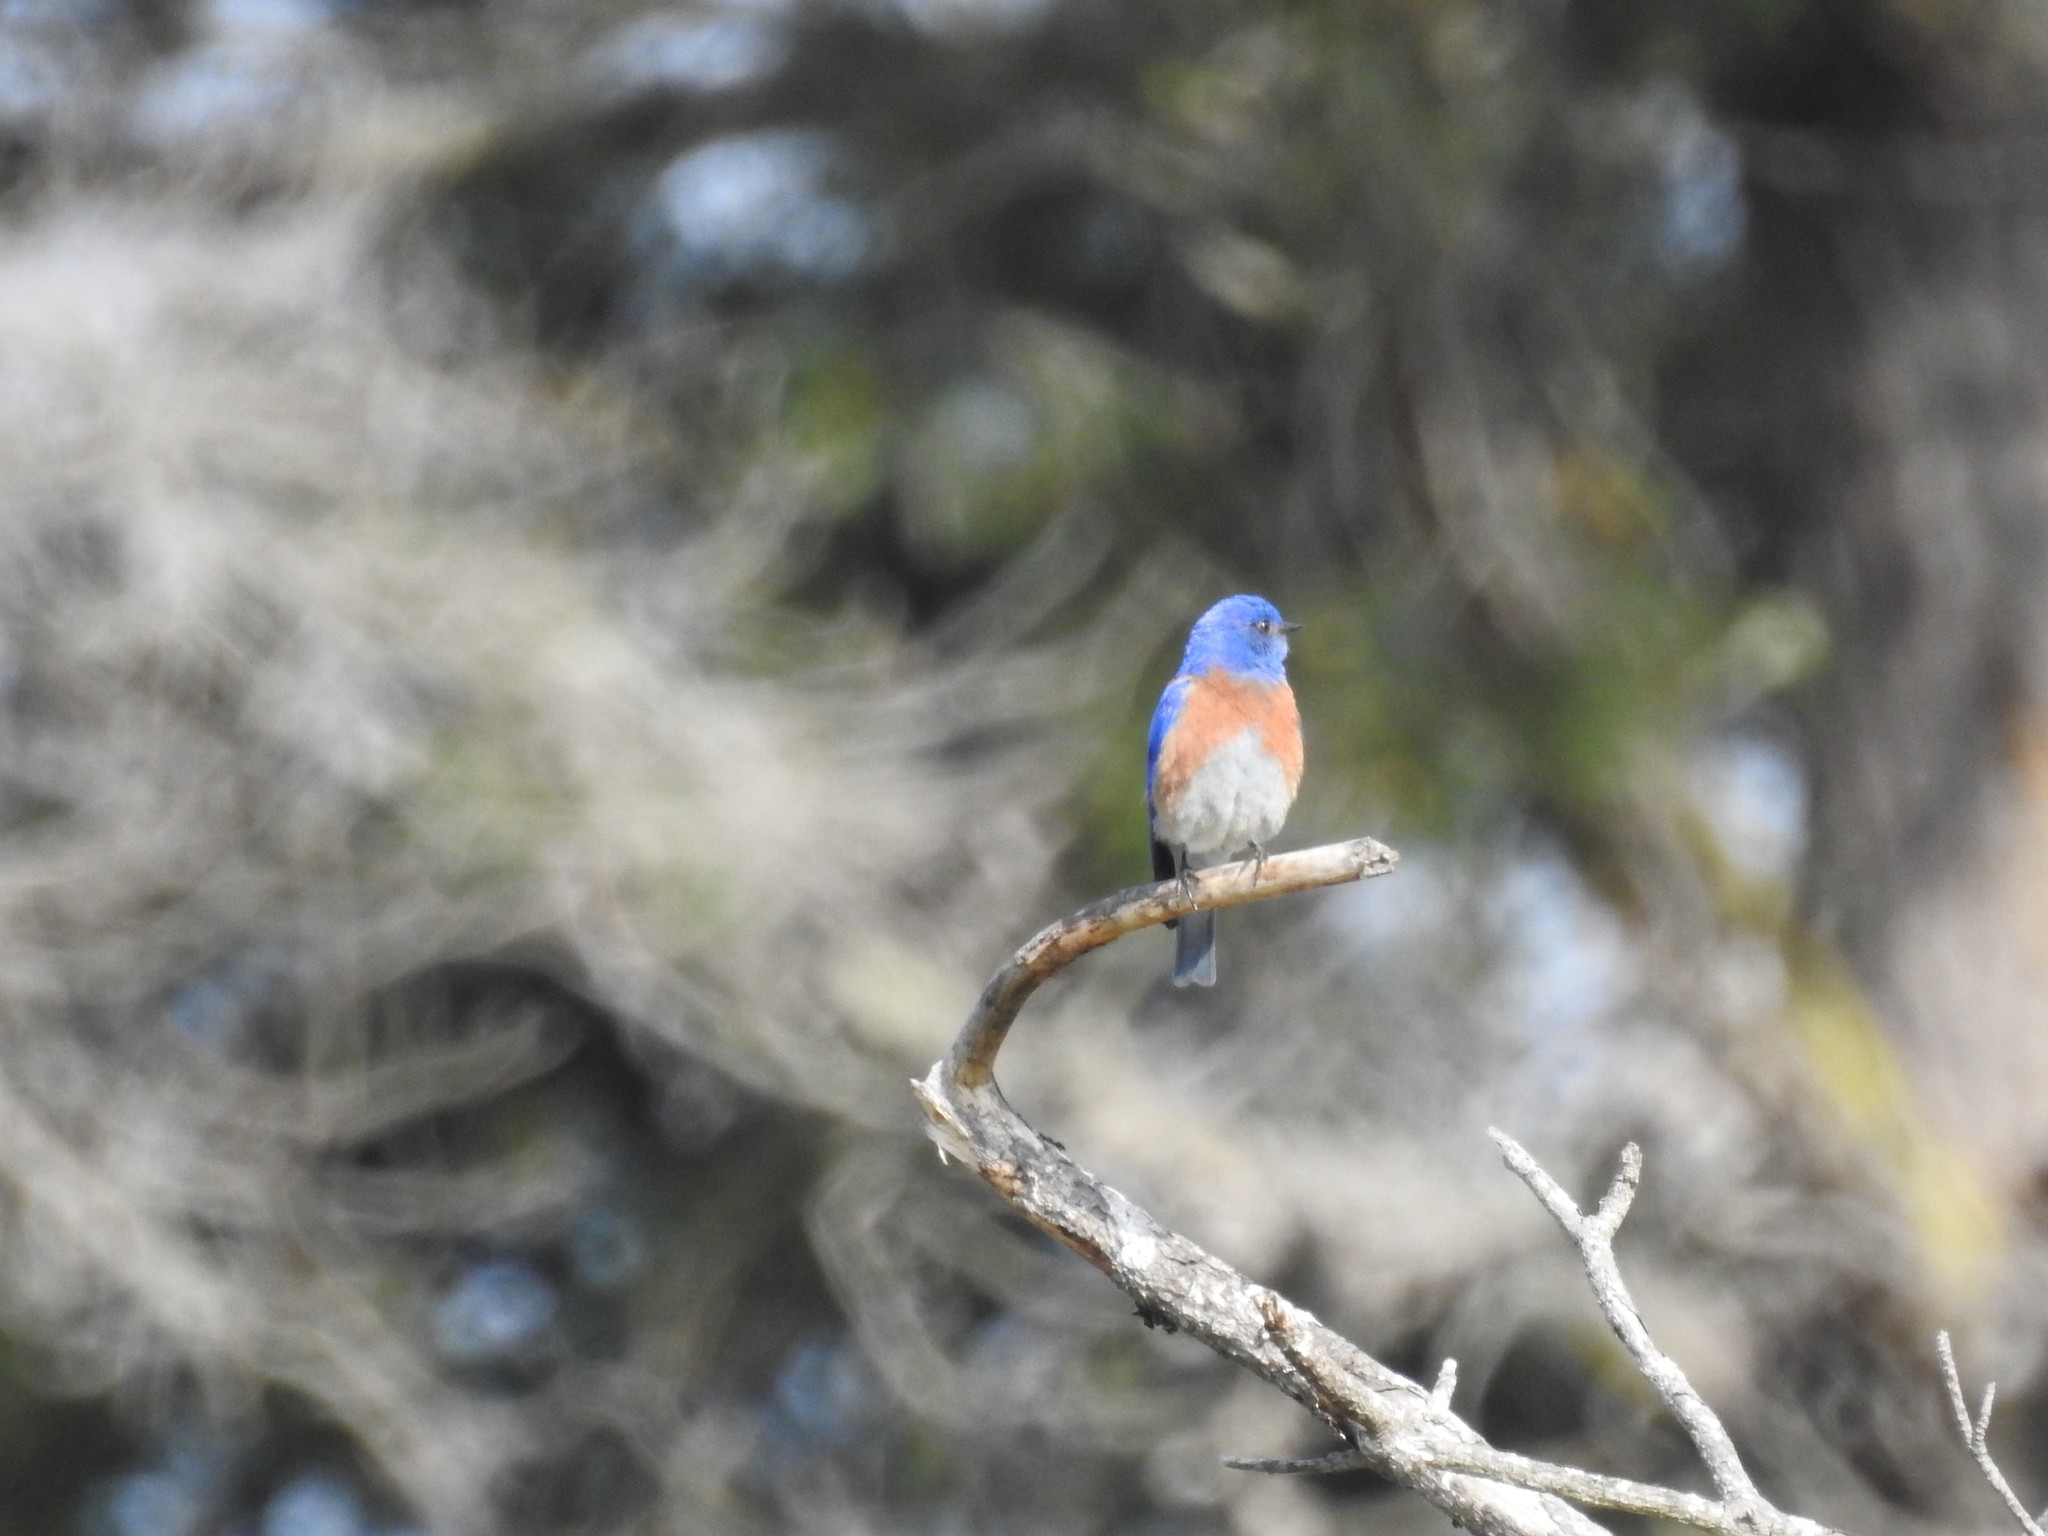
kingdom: Animalia
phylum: Chordata
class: Aves
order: Passeriformes
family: Turdidae
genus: Sialia
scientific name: Sialia mexicana
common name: Western bluebird
